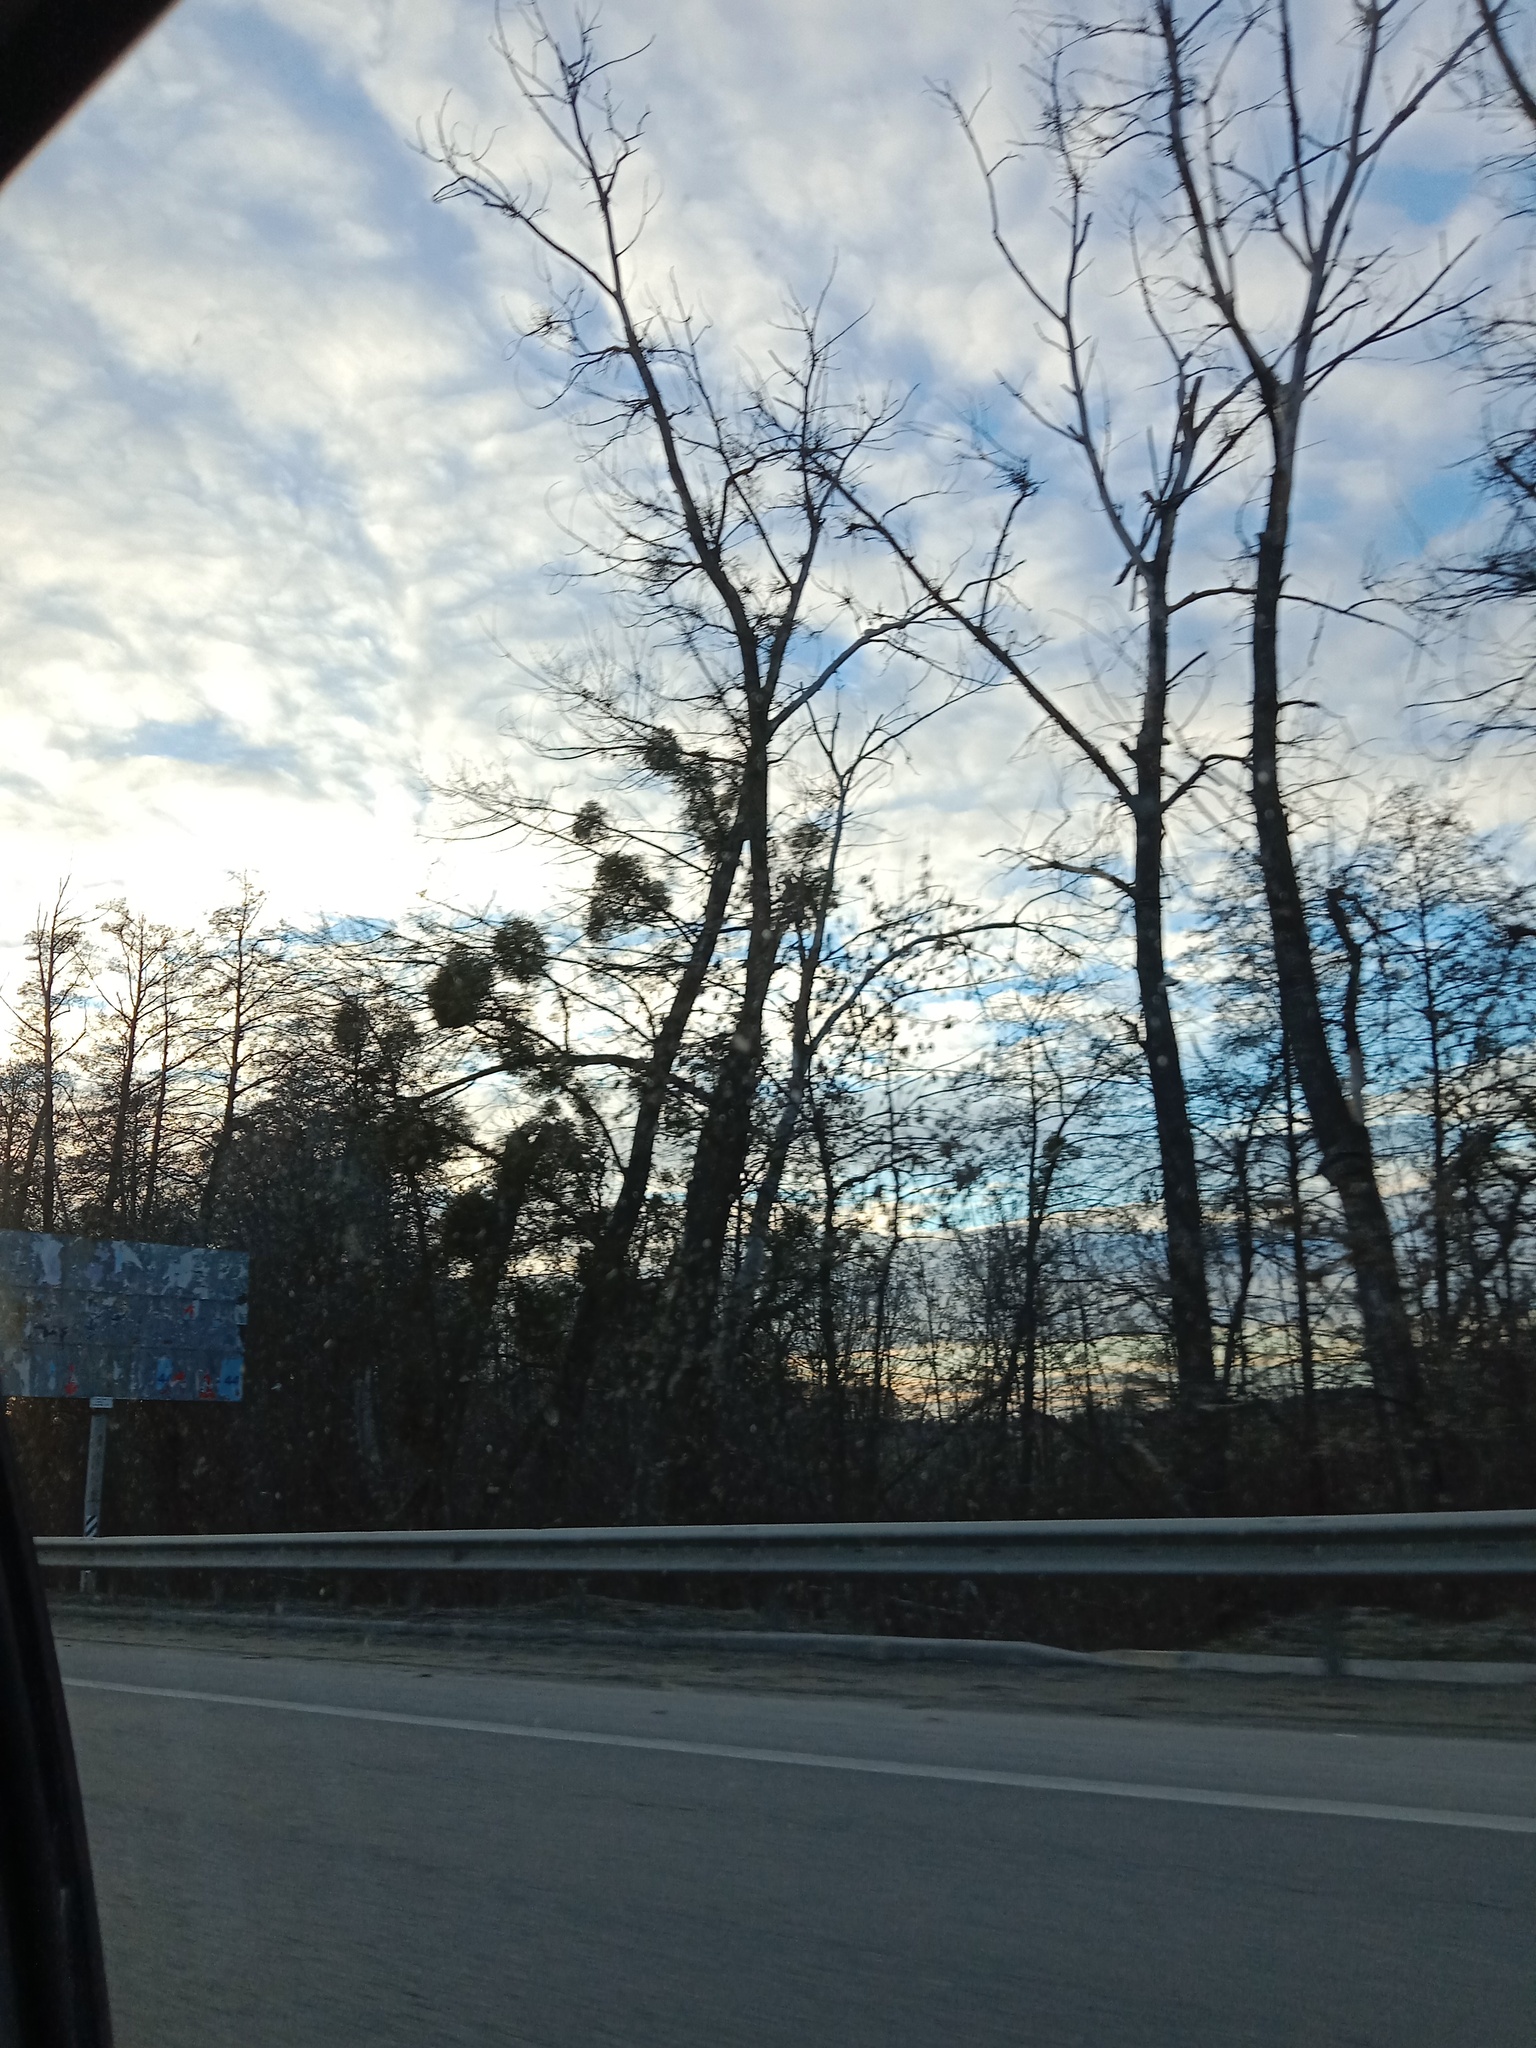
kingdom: Plantae
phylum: Tracheophyta
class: Magnoliopsida
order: Santalales
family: Viscaceae
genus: Viscum
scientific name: Viscum album
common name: Mistletoe
